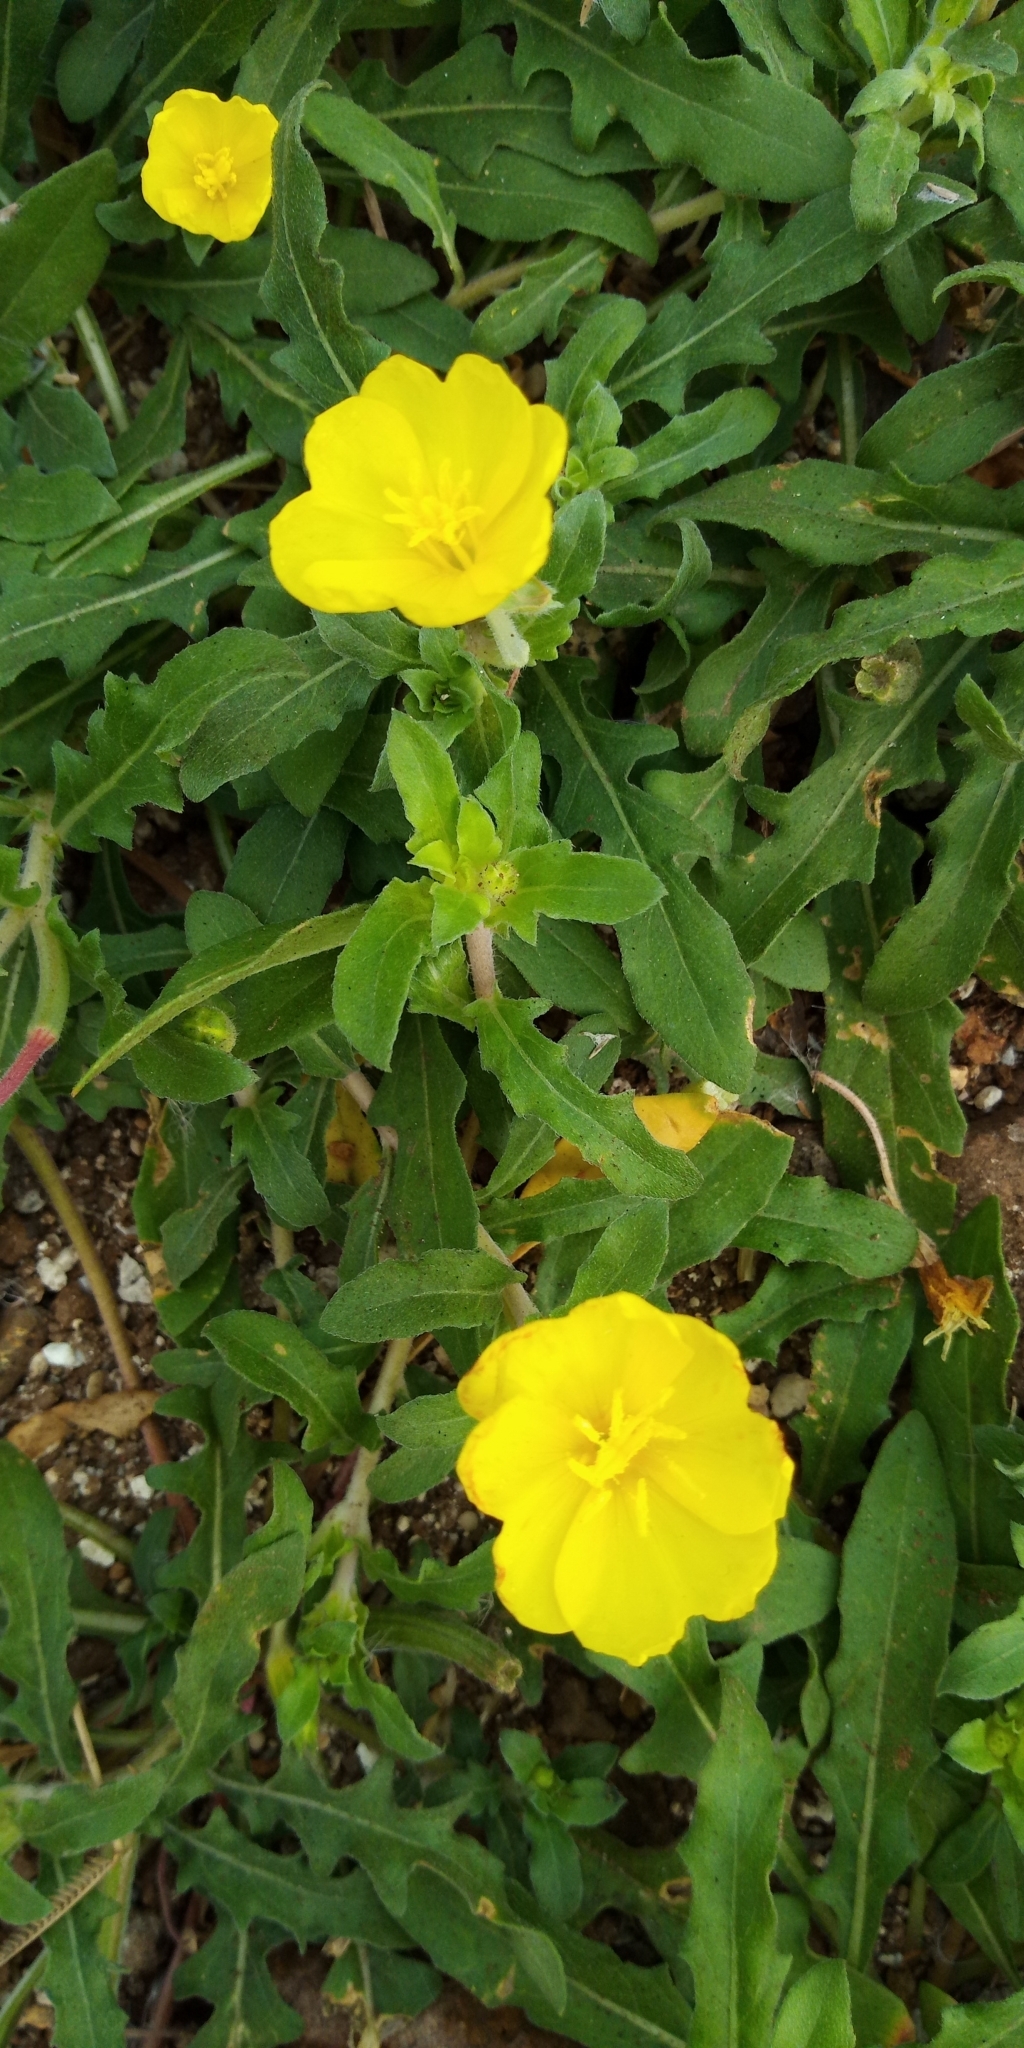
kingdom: Plantae
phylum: Tracheophyta
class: Magnoliopsida
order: Myrtales
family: Onagraceae
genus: Oenothera
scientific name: Oenothera laciniata
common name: Cut-leaved evening-primrose
